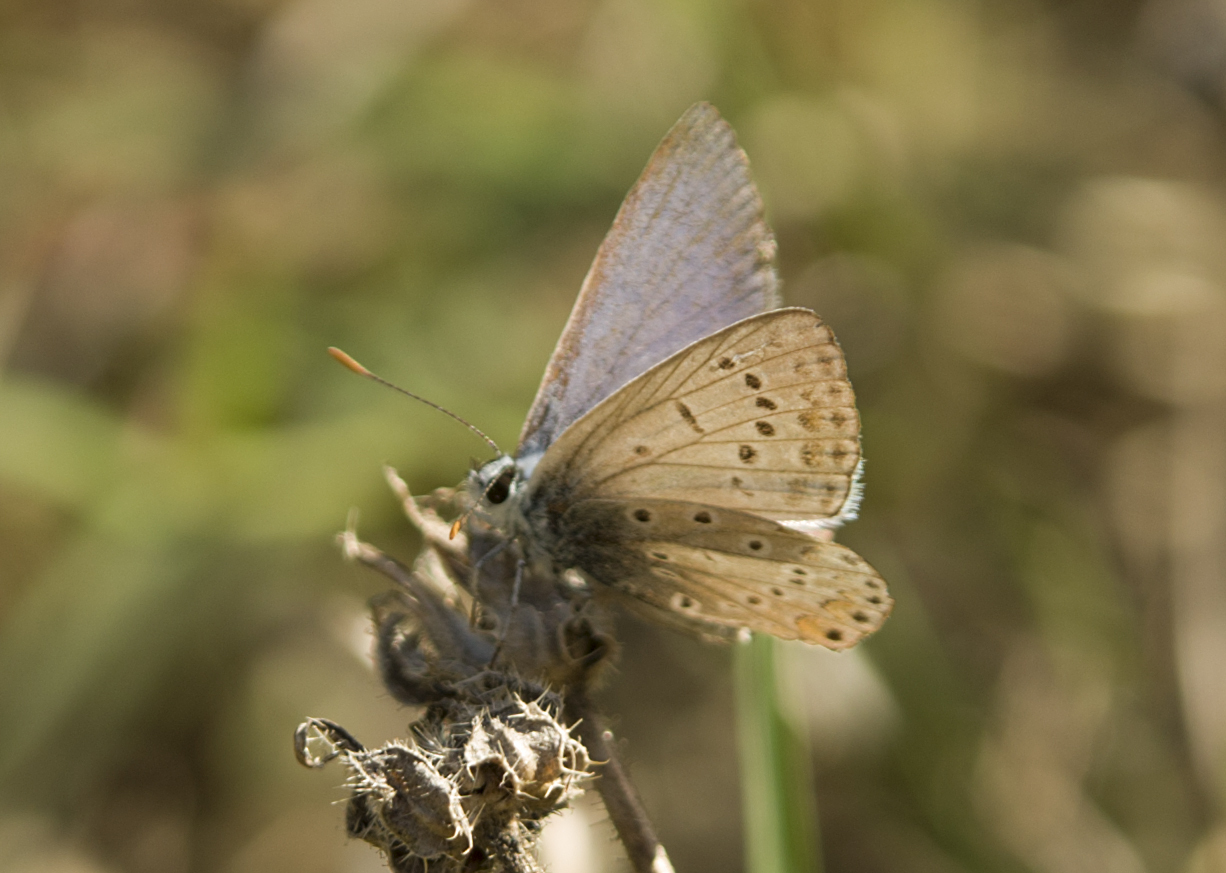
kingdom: Animalia
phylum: Arthropoda
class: Insecta
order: Lepidoptera
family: Lycaenidae
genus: Polyommatus
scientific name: Polyommatus icarus
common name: Common blue
